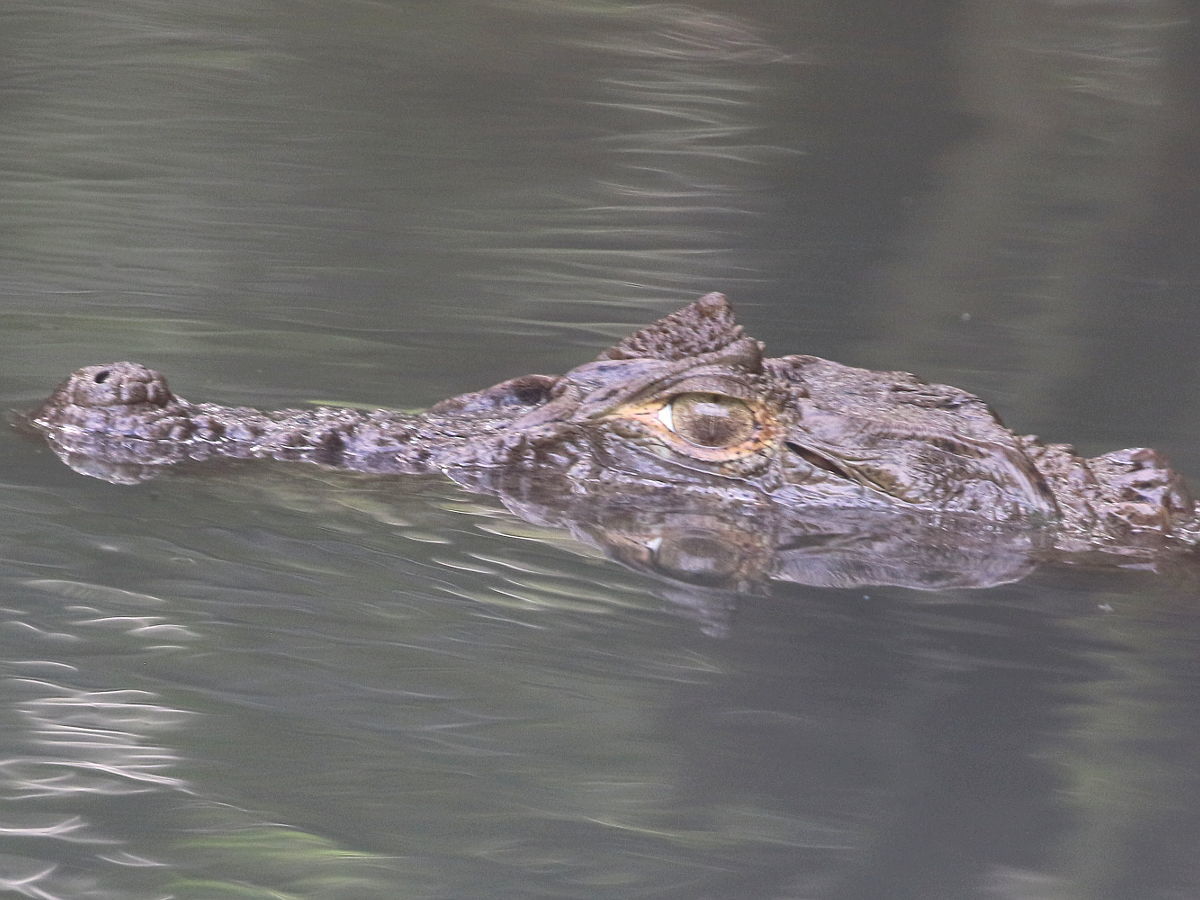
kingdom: Animalia
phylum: Chordata
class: Crocodylia
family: Alligatoridae
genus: Caiman
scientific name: Caiman latirostris
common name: Broad-snouted caiman
